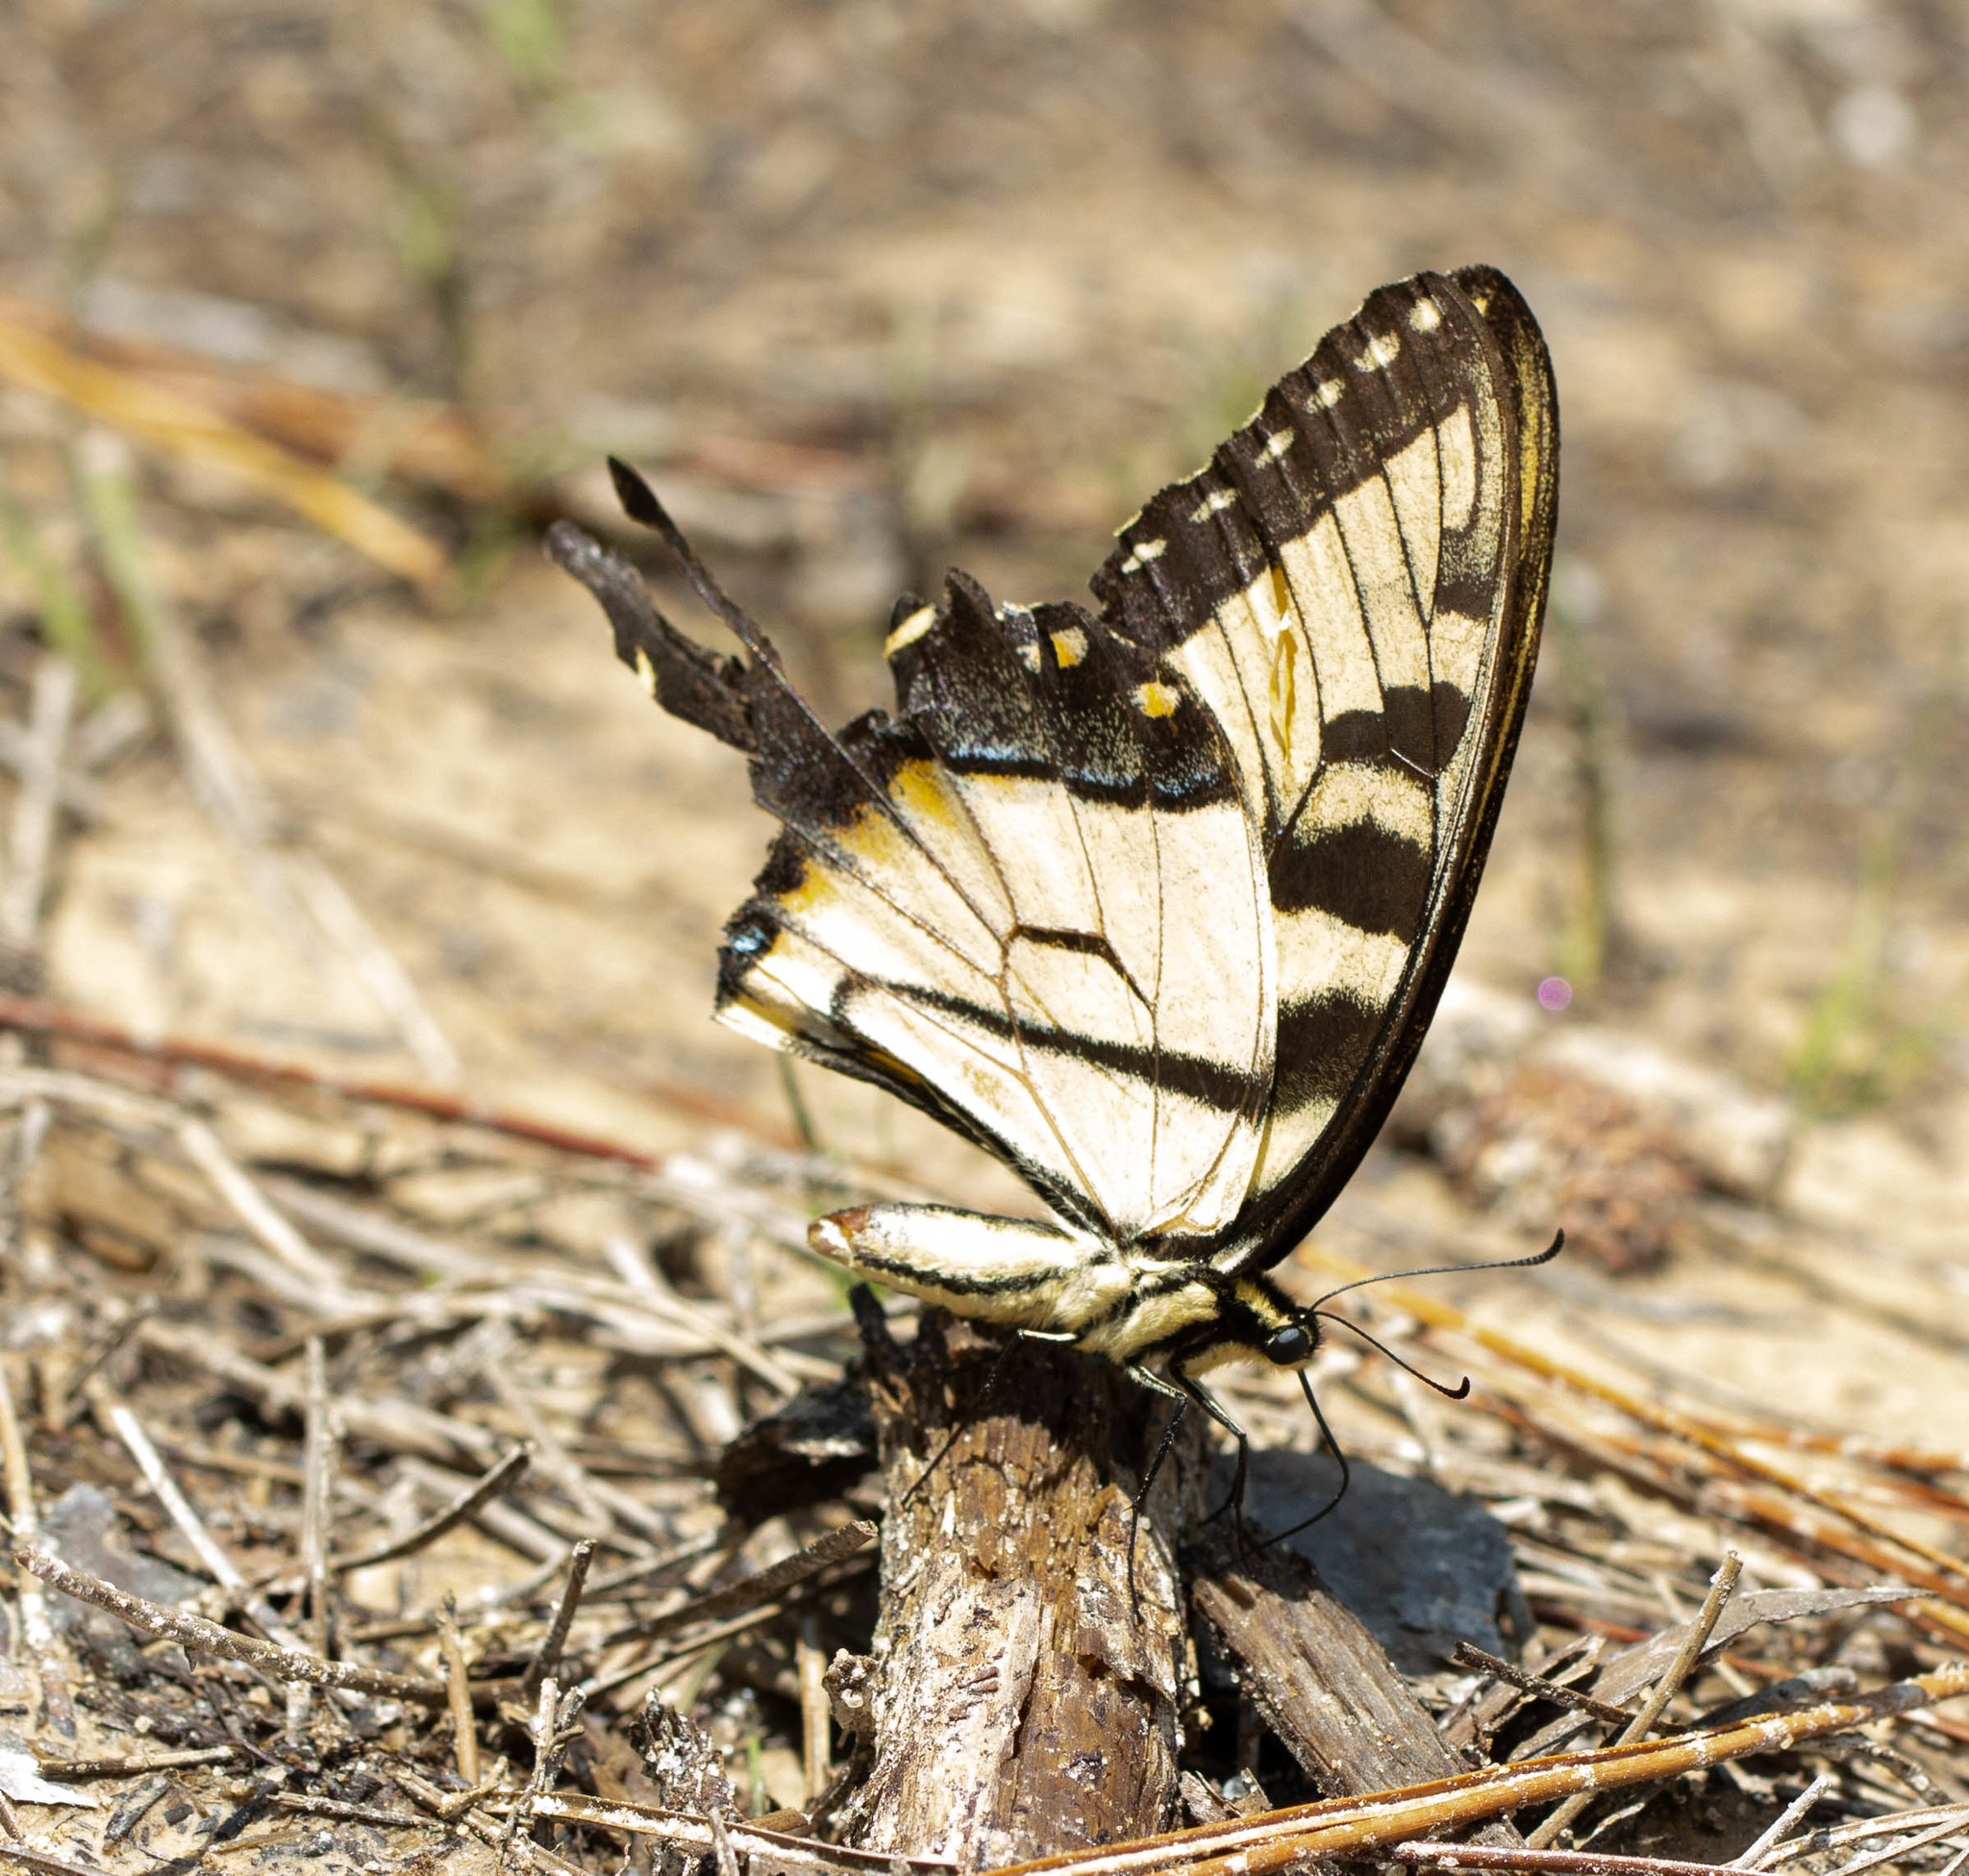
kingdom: Animalia
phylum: Arthropoda
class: Insecta
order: Lepidoptera
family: Papilionidae
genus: Papilio
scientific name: Papilio glaucus
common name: Tiger swallowtail
